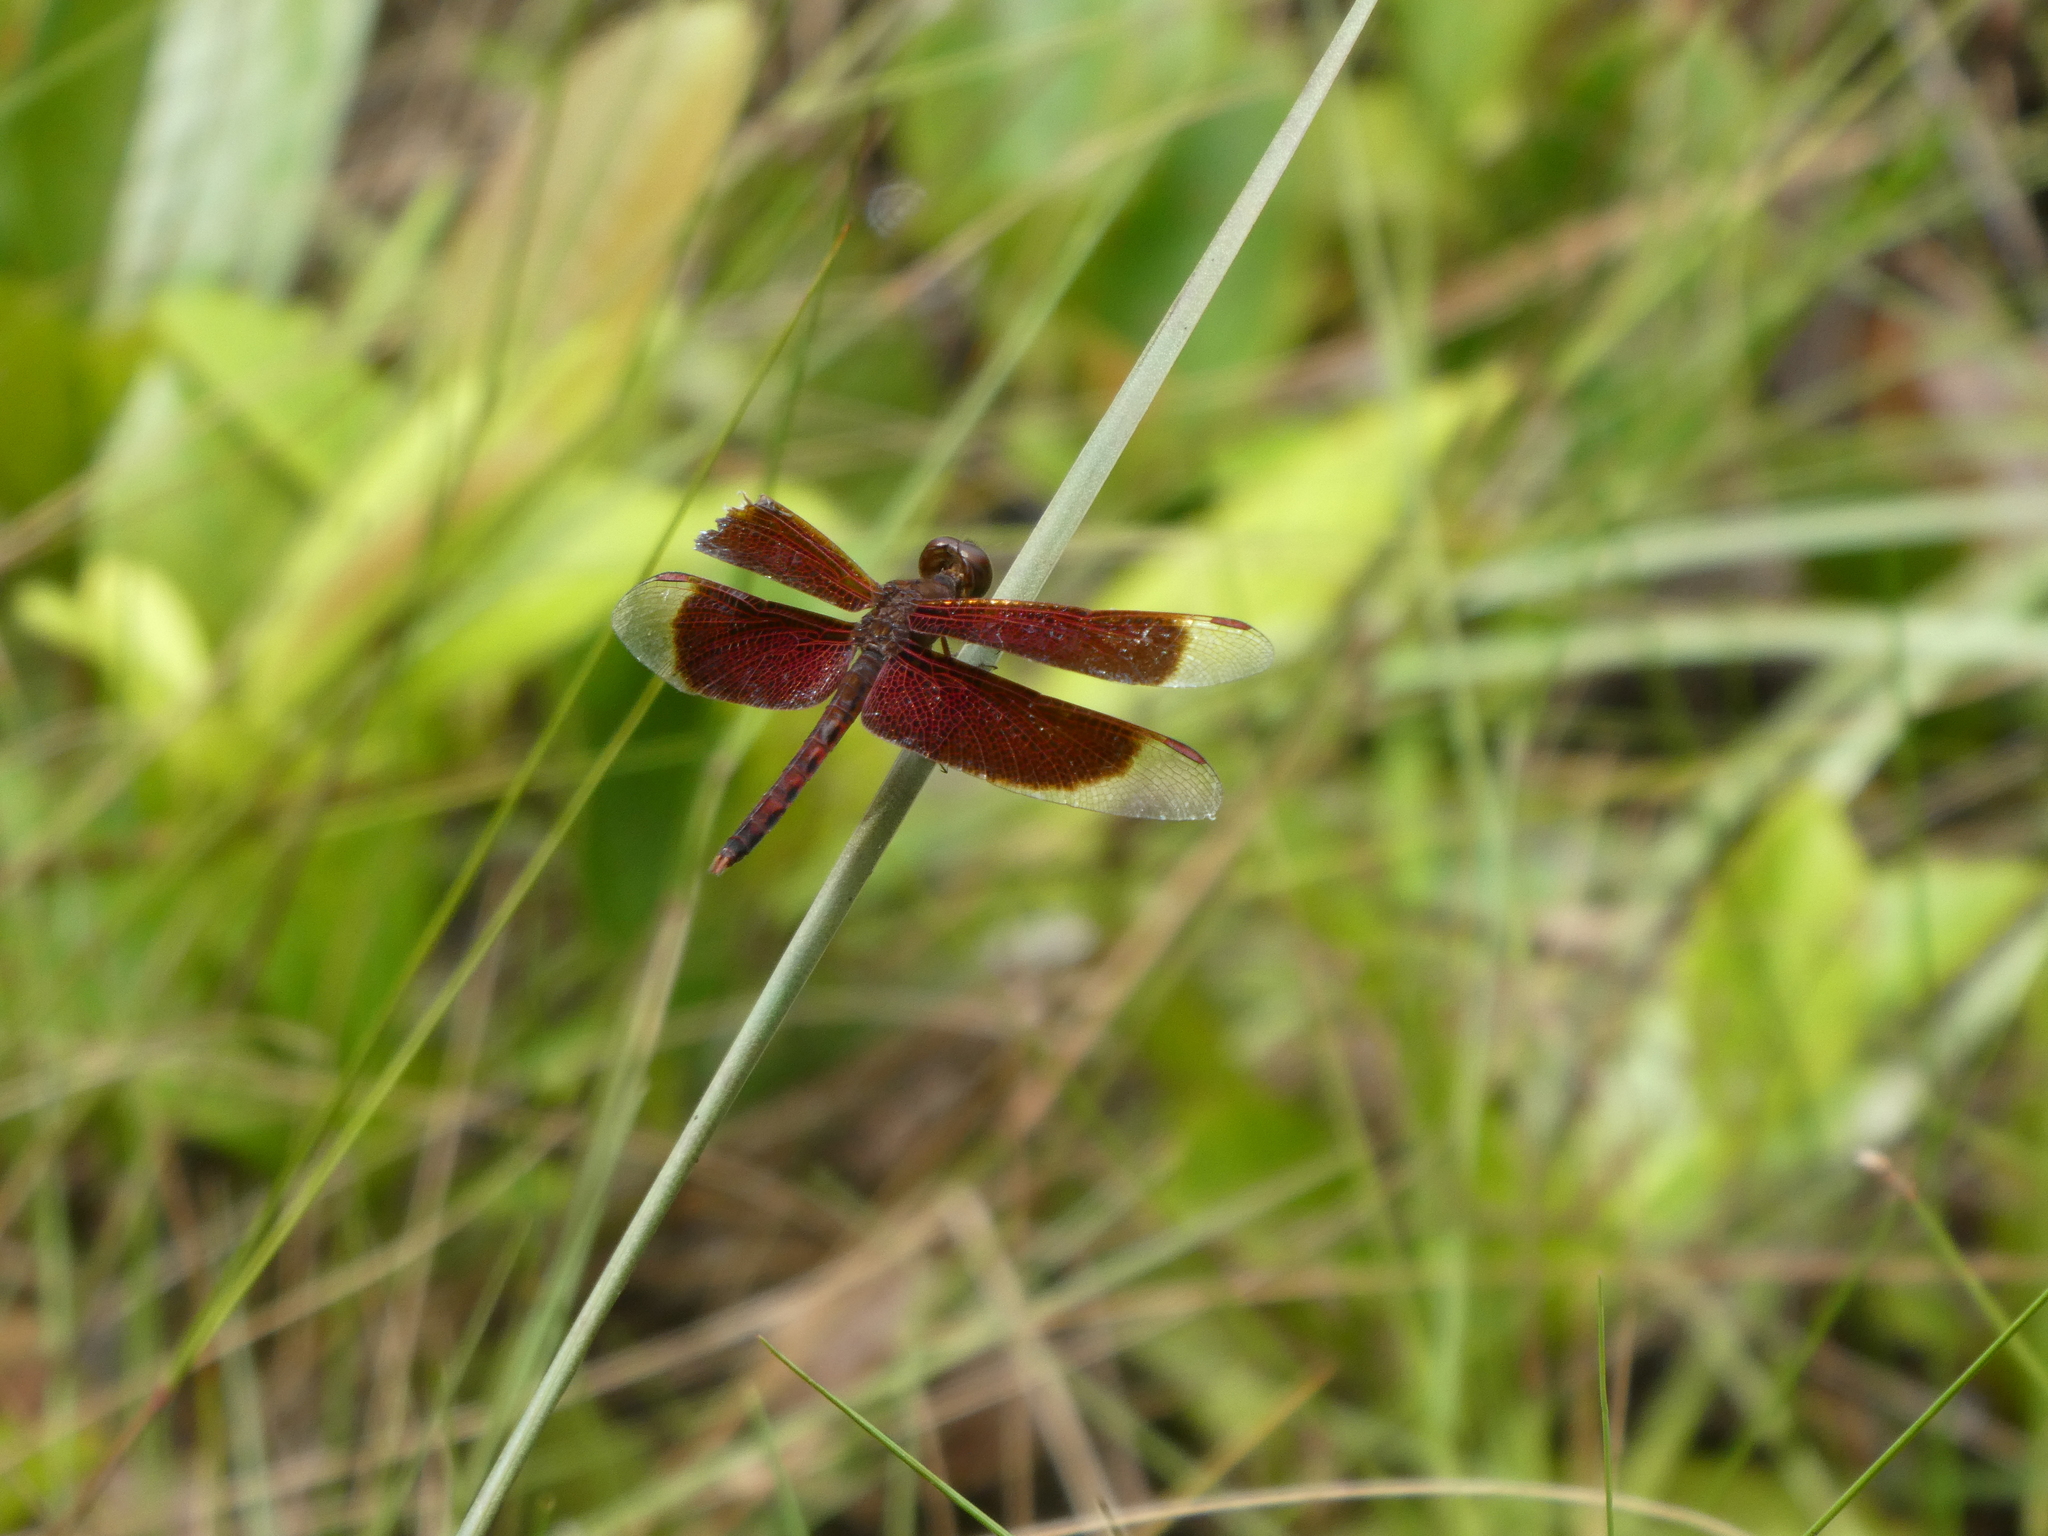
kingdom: Animalia
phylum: Arthropoda
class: Insecta
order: Odonata
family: Libellulidae
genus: Neurothemis
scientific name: Neurothemis fluctuans
